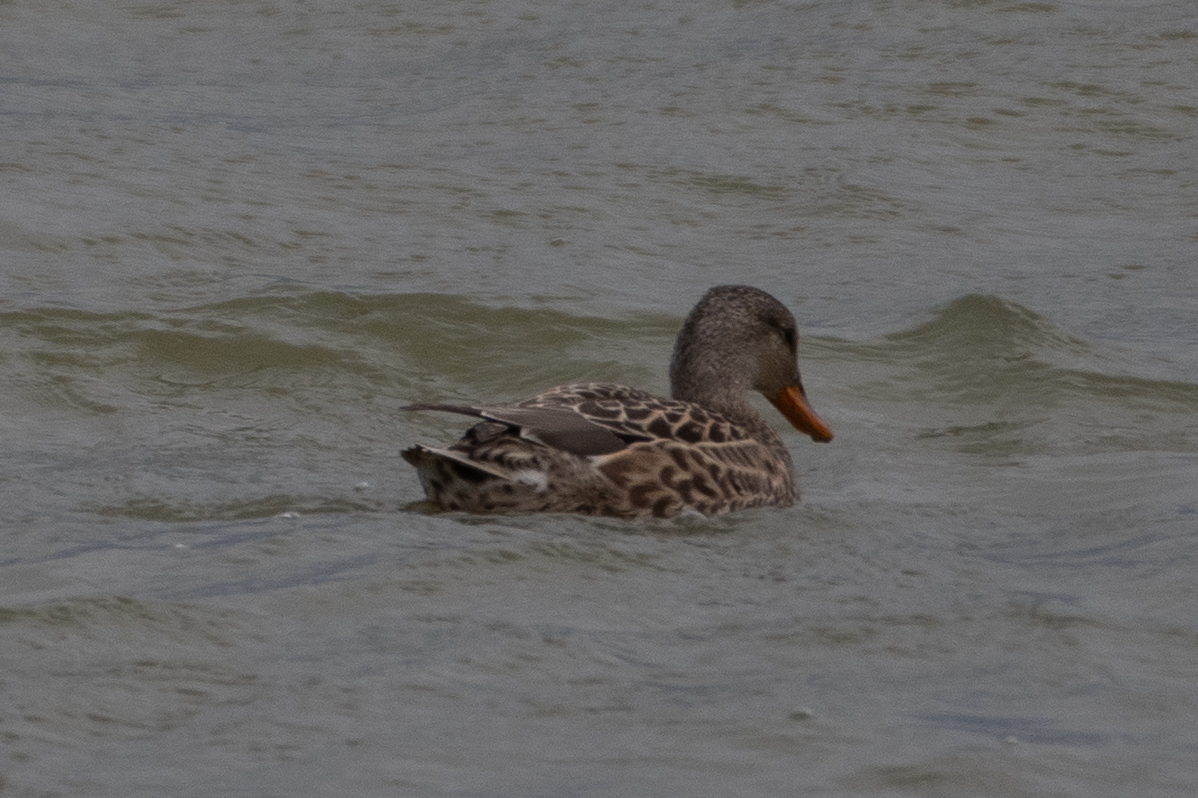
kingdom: Animalia
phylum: Chordata
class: Aves
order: Anseriformes
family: Anatidae
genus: Mareca
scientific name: Mareca strepera
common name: Gadwall
